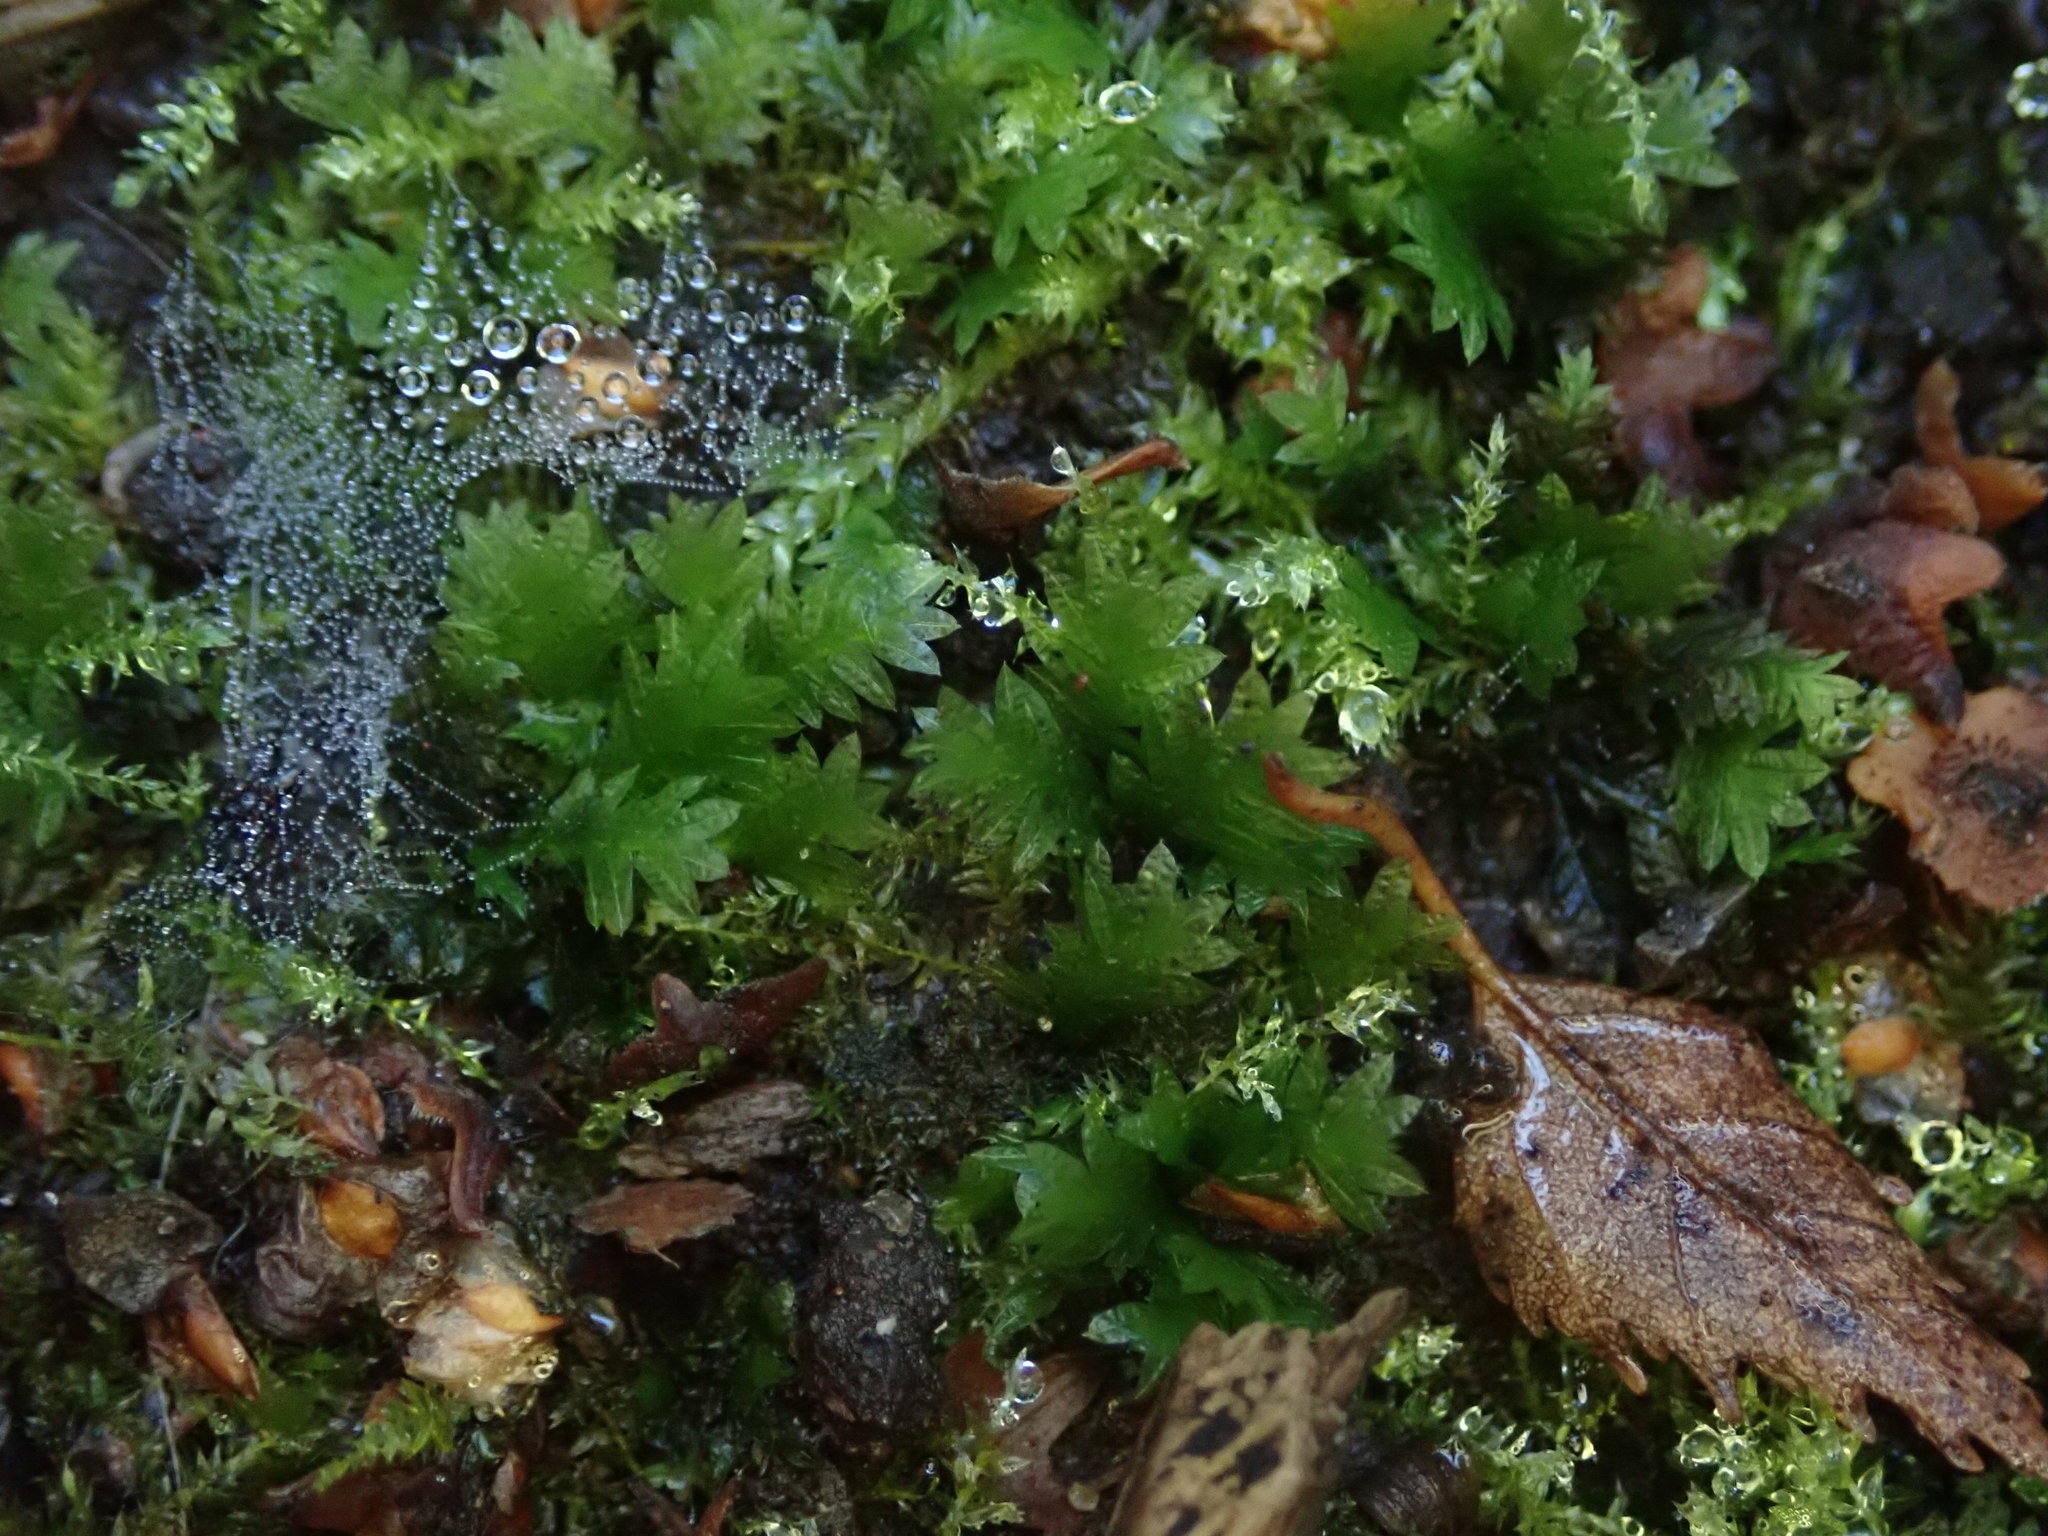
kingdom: Plantae
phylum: Bryophyta
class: Bryopsida
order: Dicranales
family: Fissidentaceae
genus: Fissidens
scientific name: Fissidens taxifolius
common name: Yew-leaved pocket moss
